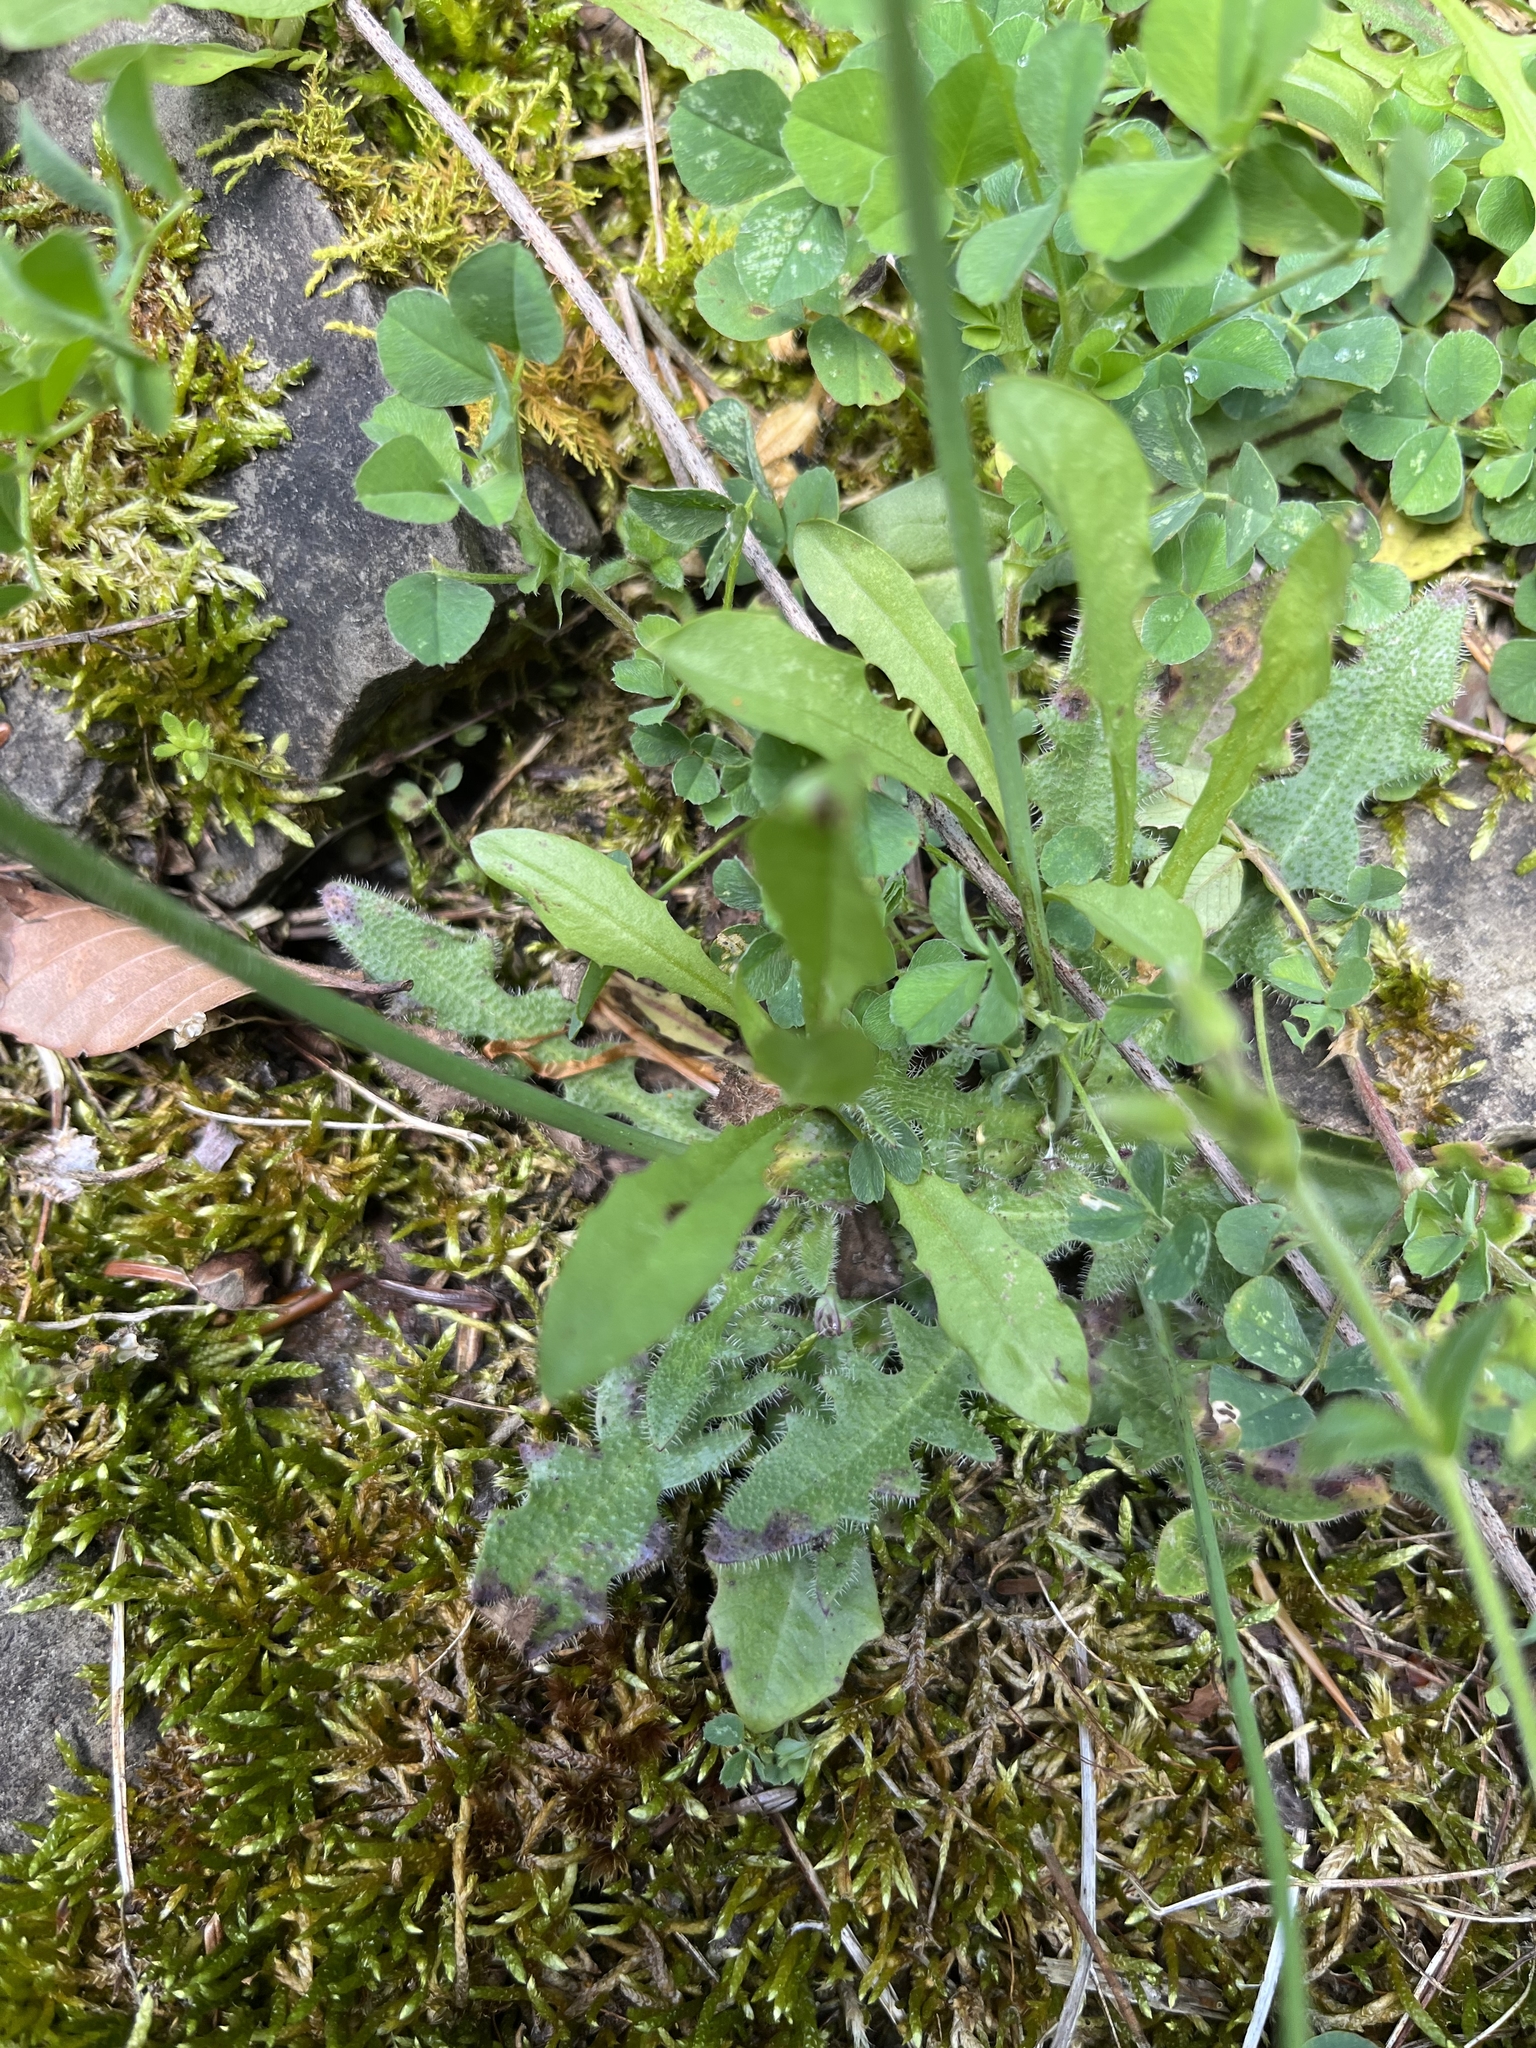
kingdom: Plantae
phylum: Tracheophyta
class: Magnoliopsida
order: Asterales
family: Asteraceae
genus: Hypochaeris
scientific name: Hypochaeris radicata
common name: Flatweed
